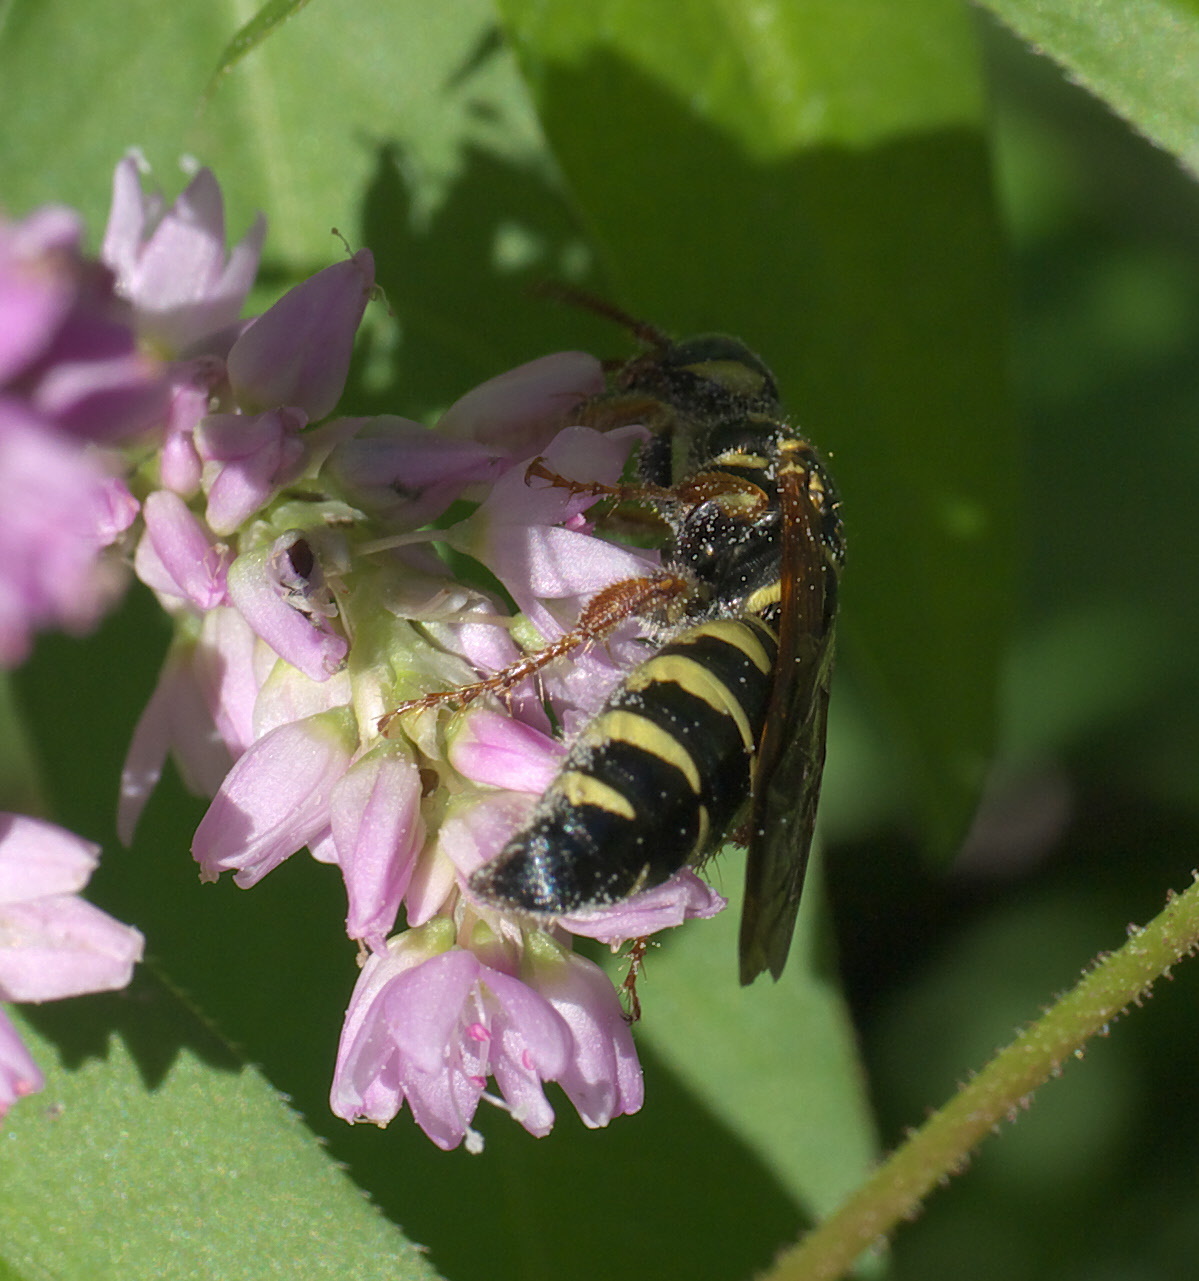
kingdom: Animalia
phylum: Arthropoda
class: Insecta
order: Hymenoptera
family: Tiphiidae
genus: Myzinum
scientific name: Myzinum
